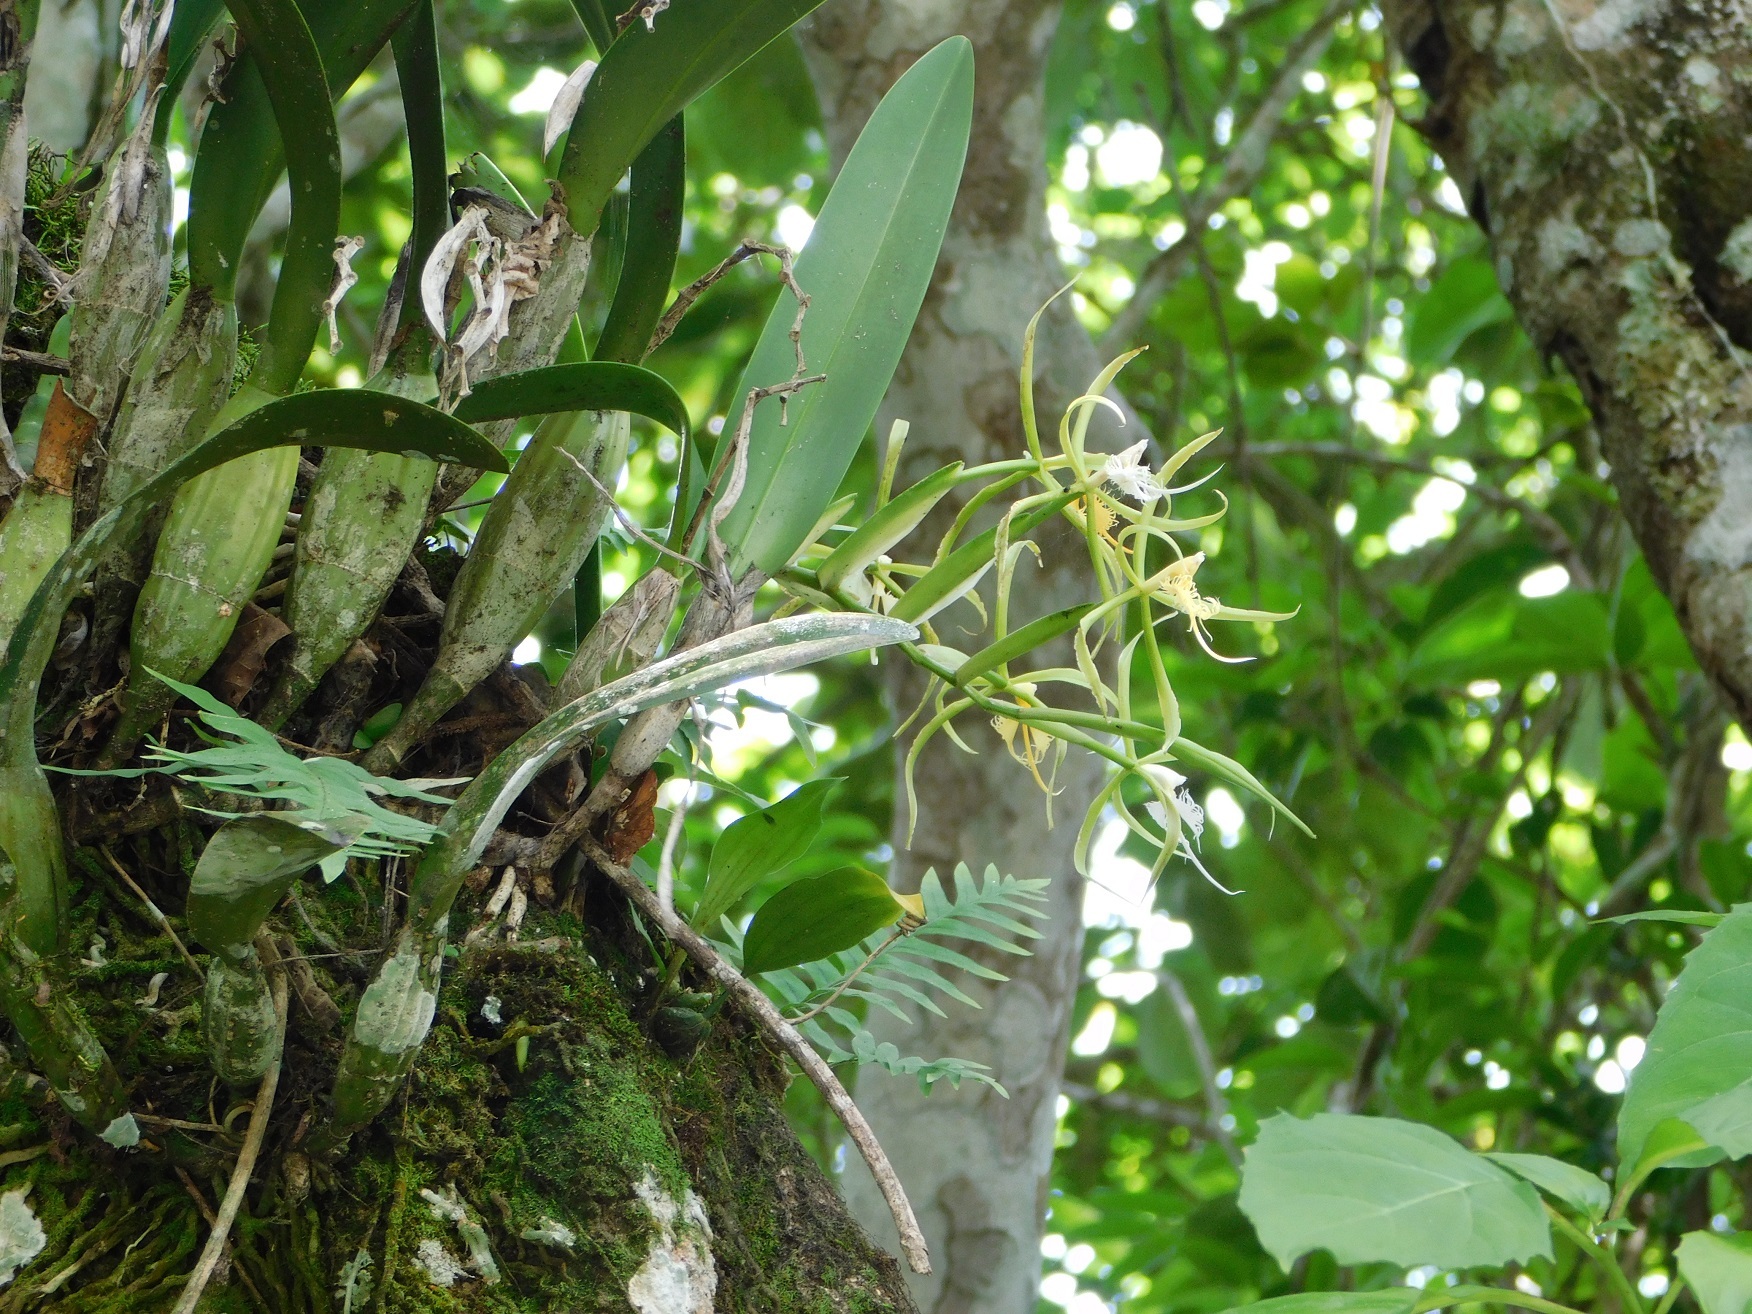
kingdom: Plantae
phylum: Tracheophyta
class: Liliopsida
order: Asparagales
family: Orchidaceae
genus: Epidendrum
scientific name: Epidendrum ciliare
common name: Eyelash orchid
